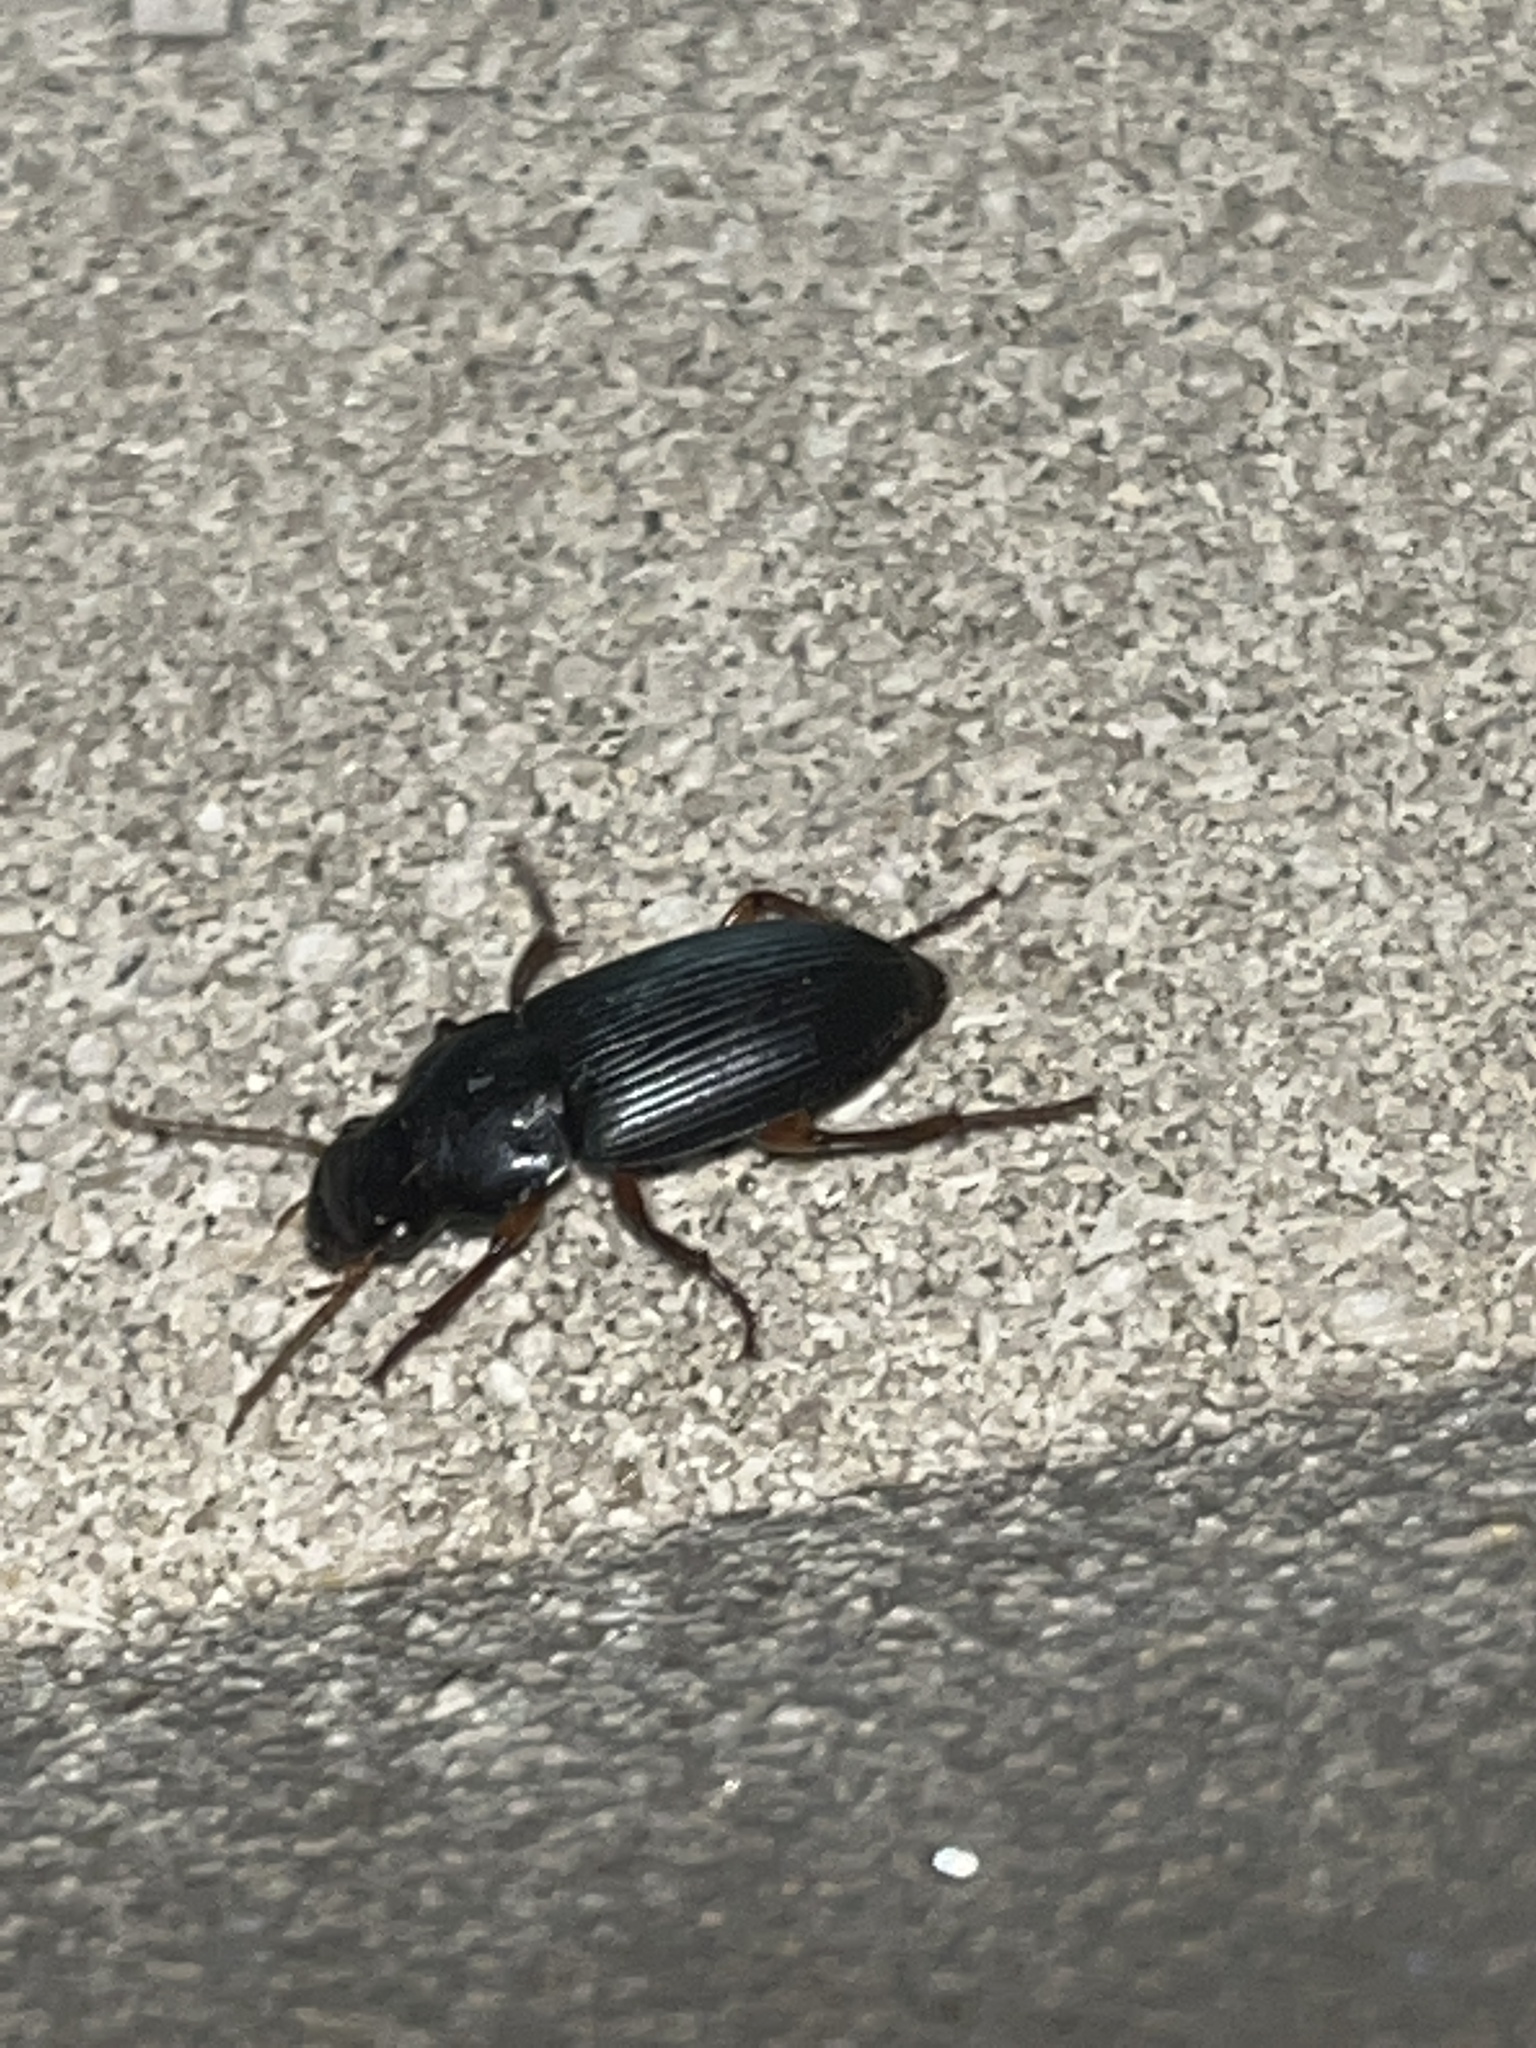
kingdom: Animalia
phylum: Arthropoda
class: Insecta
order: Coleoptera
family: Carabidae
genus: Harpalus
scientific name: Harpalus pensylvanicus
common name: Pennsylvania dingy ground beetle
